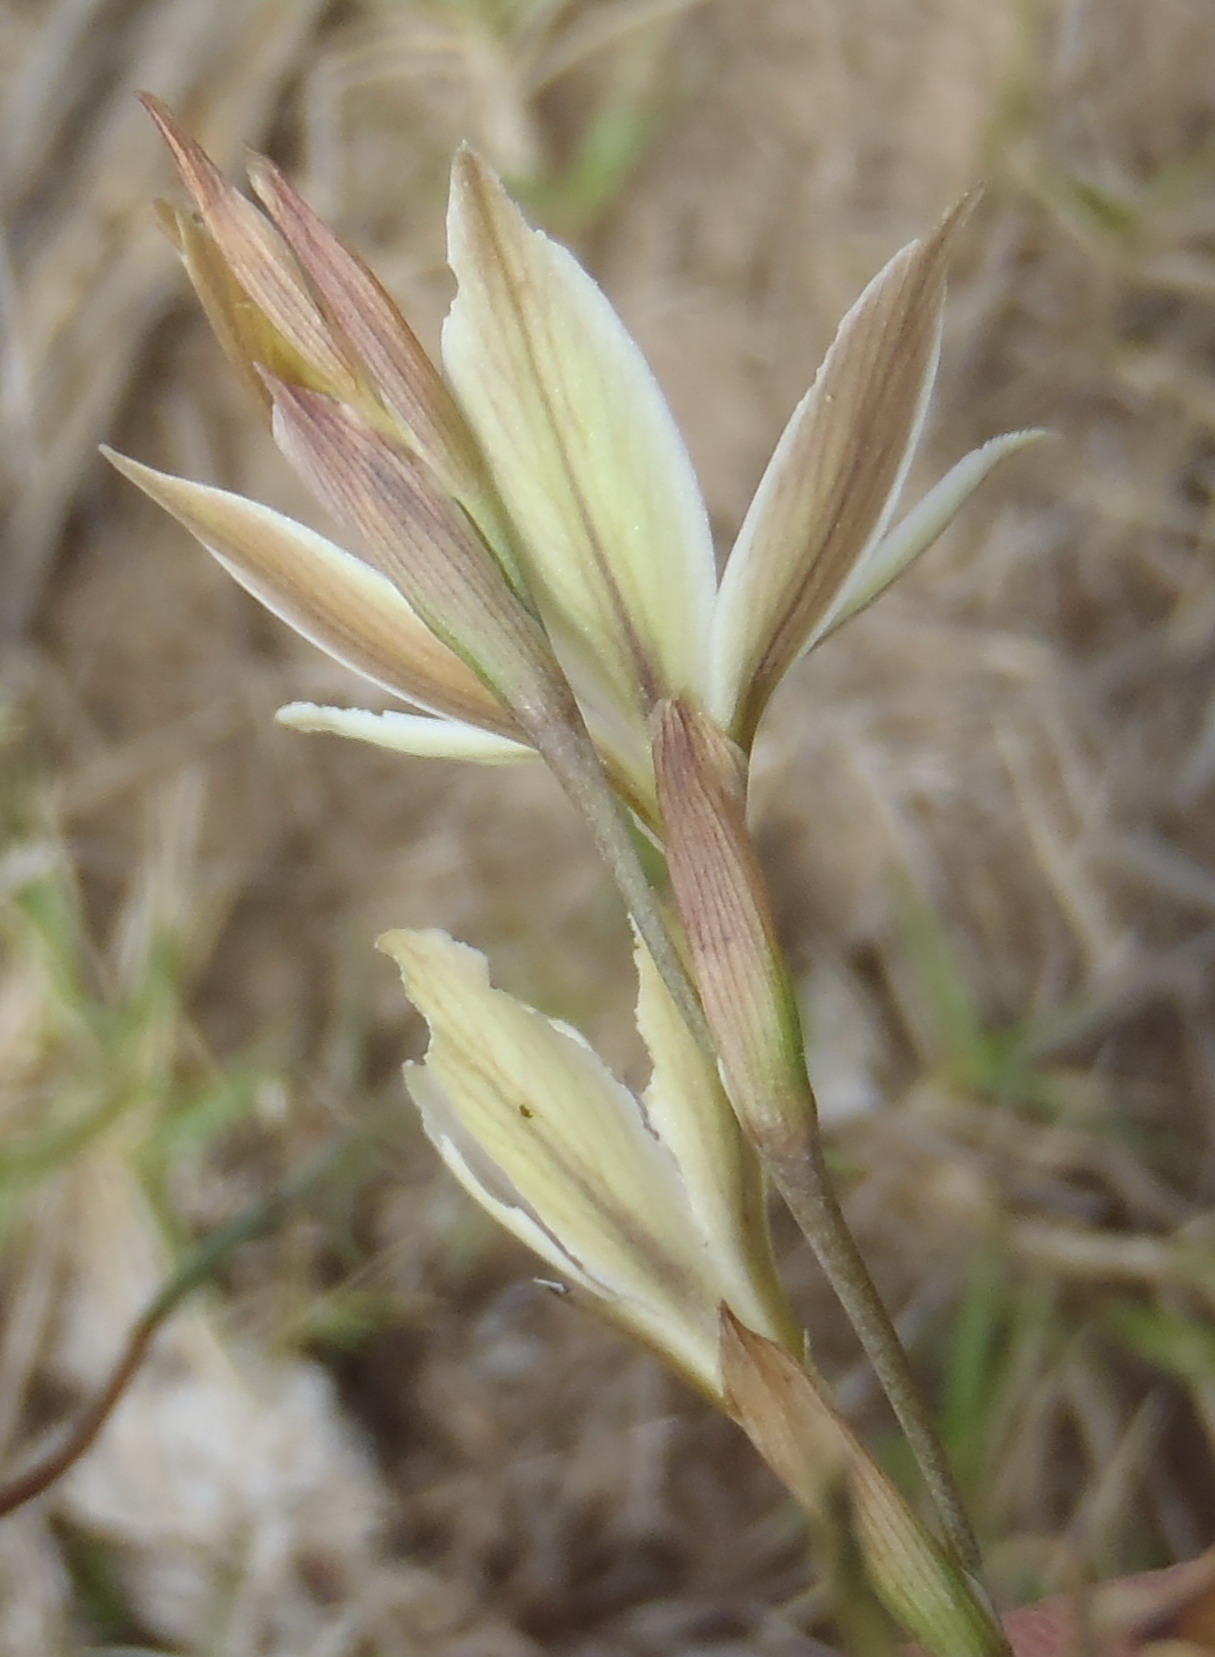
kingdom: Plantae
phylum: Tracheophyta
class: Liliopsida
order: Asparagales
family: Iridaceae
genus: Gladiolus
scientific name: Gladiolus stellatus
